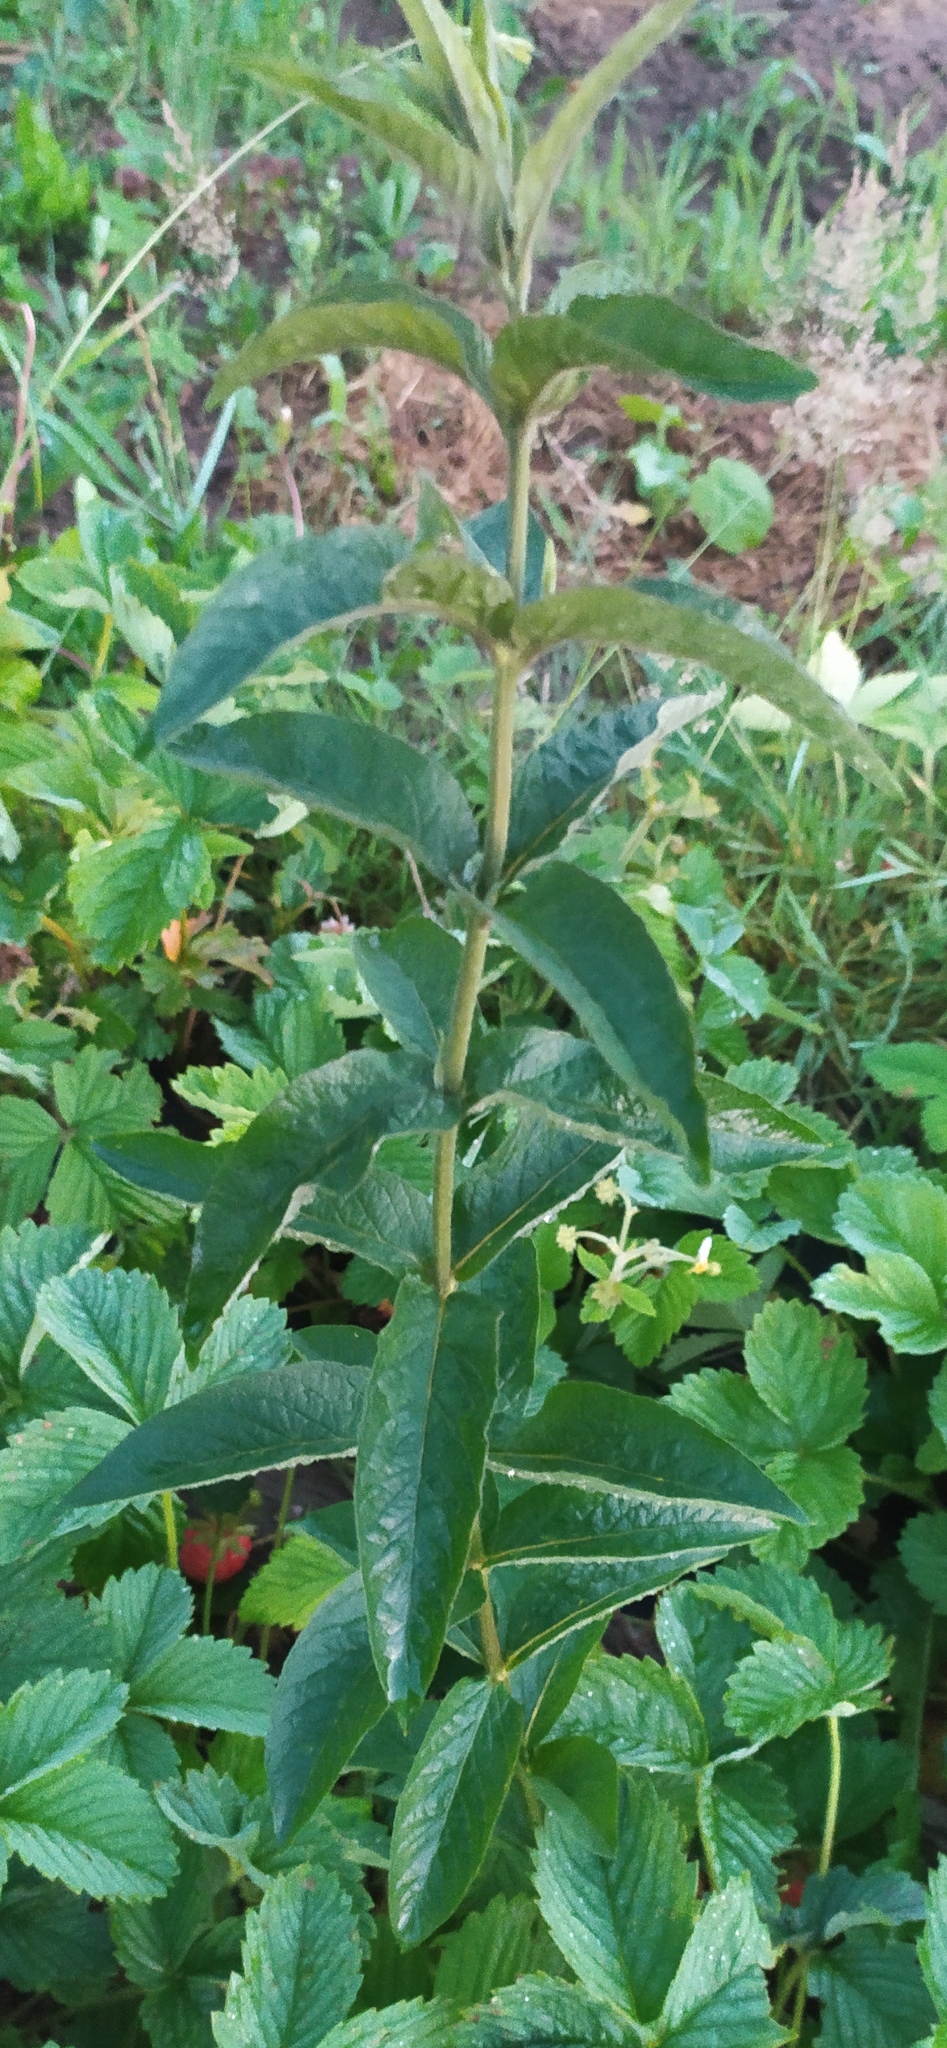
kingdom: Plantae
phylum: Tracheophyta
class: Magnoliopsida
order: Ericales
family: Primulaceae
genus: Lysimachia
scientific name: Lysimachia vulgaris
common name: Yellow loosestrife
